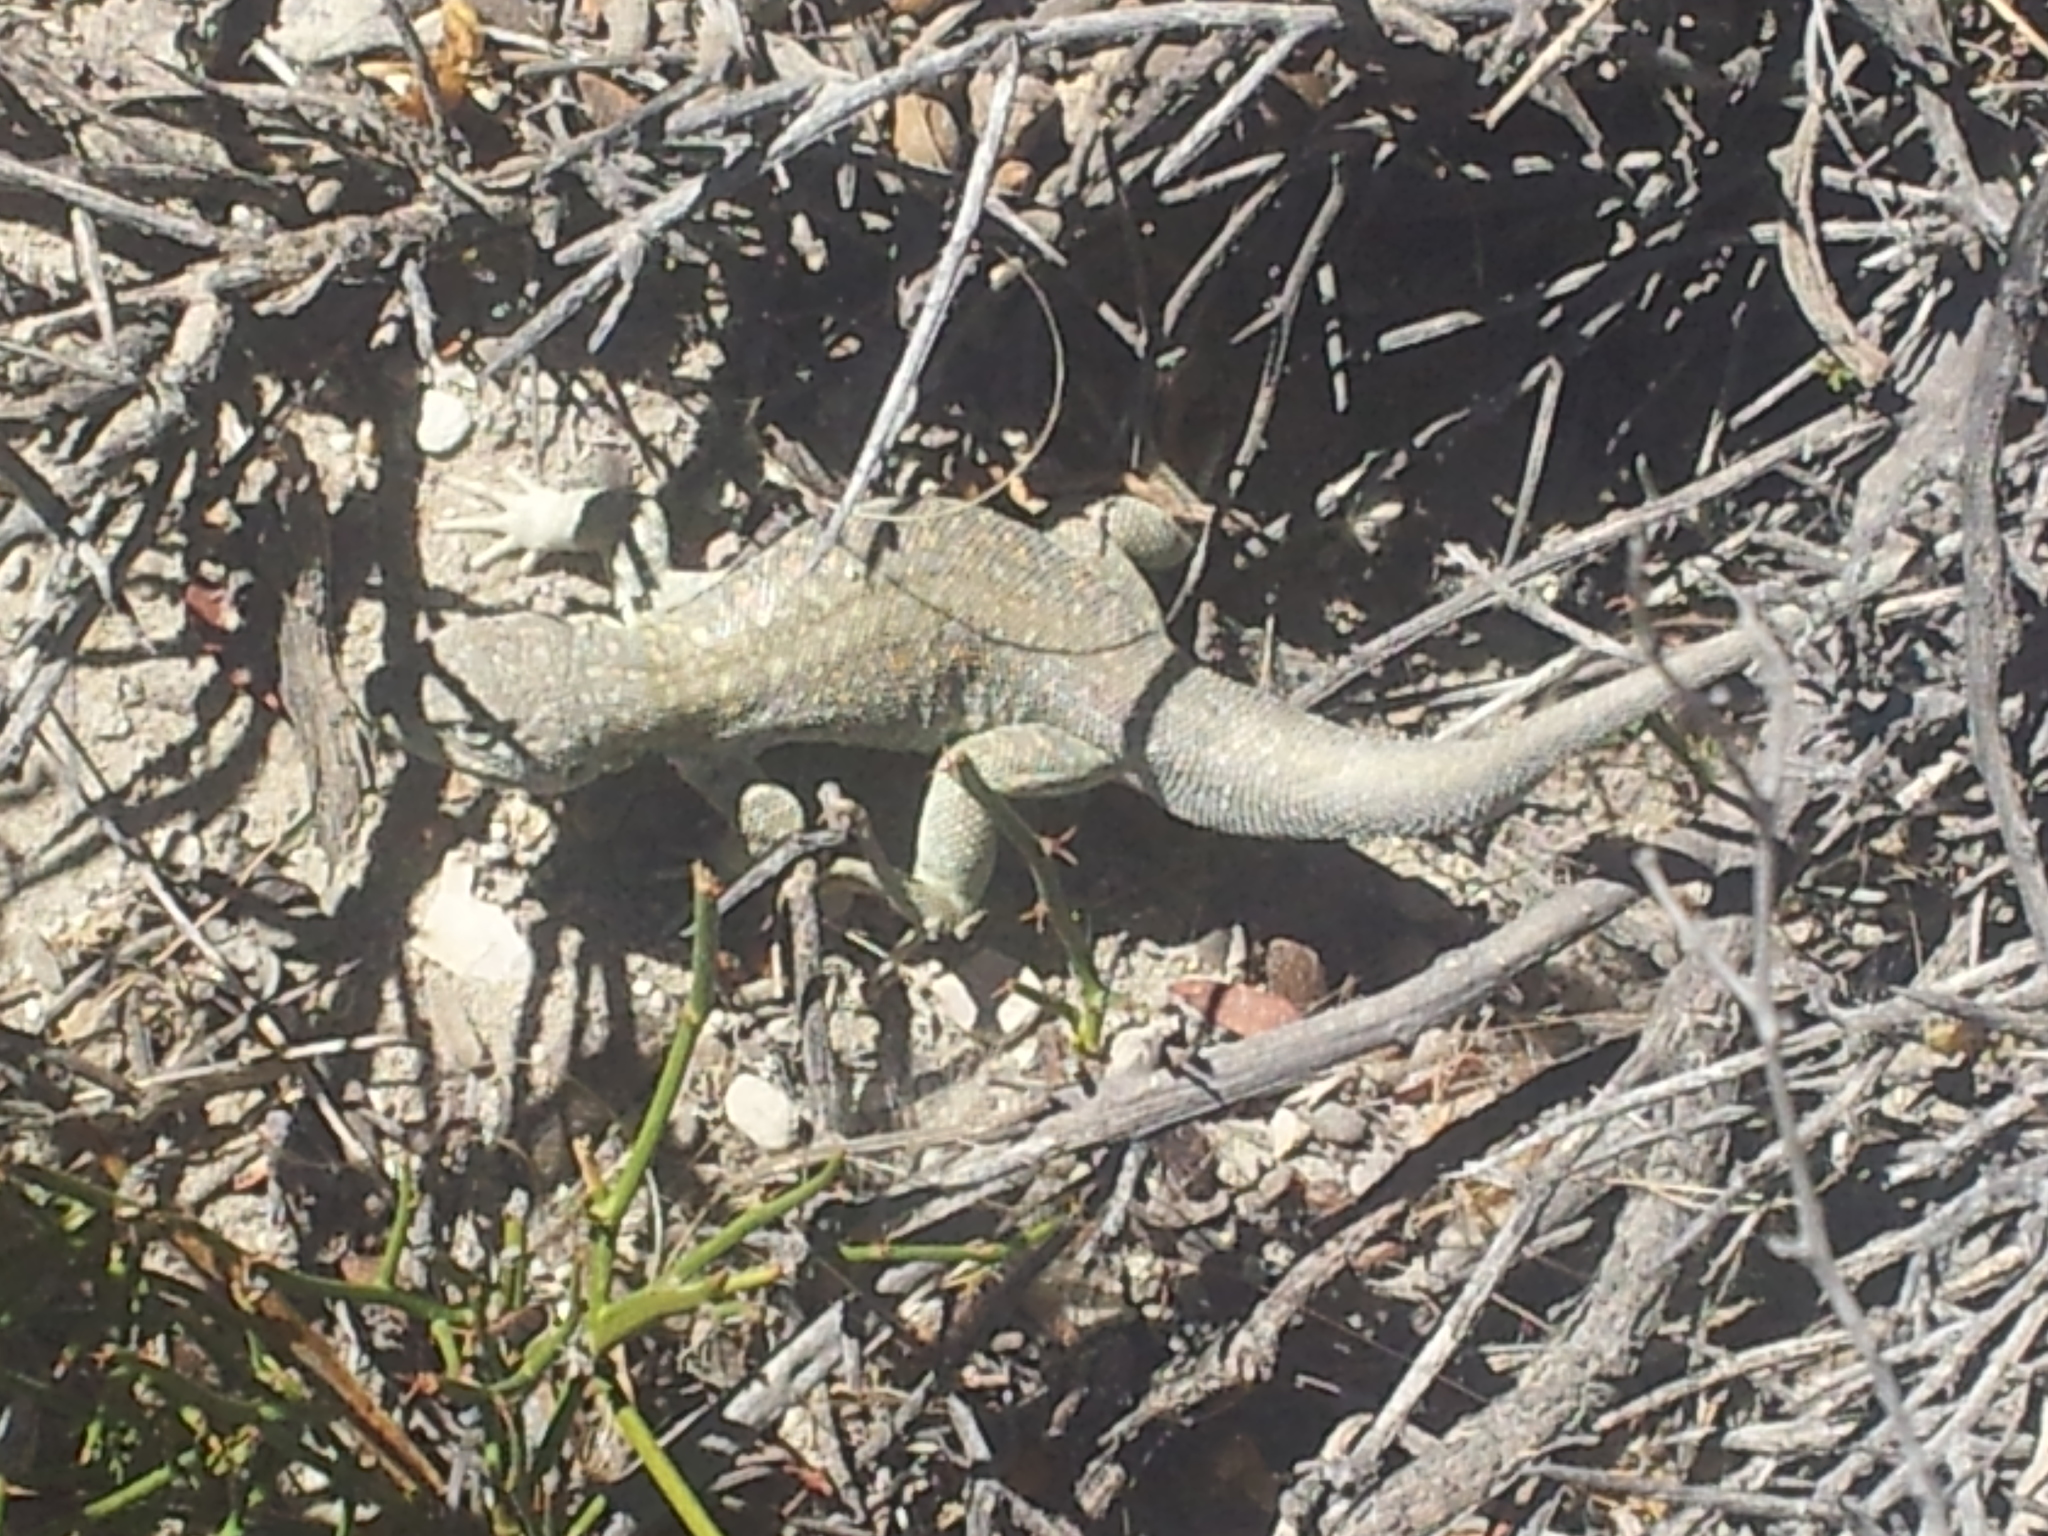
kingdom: Animalia
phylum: Chordata
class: Squamata
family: Liolaemidae
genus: Liolaemus
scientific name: Liolaemus fitzingerii
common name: Fitzinger's tree iguana
